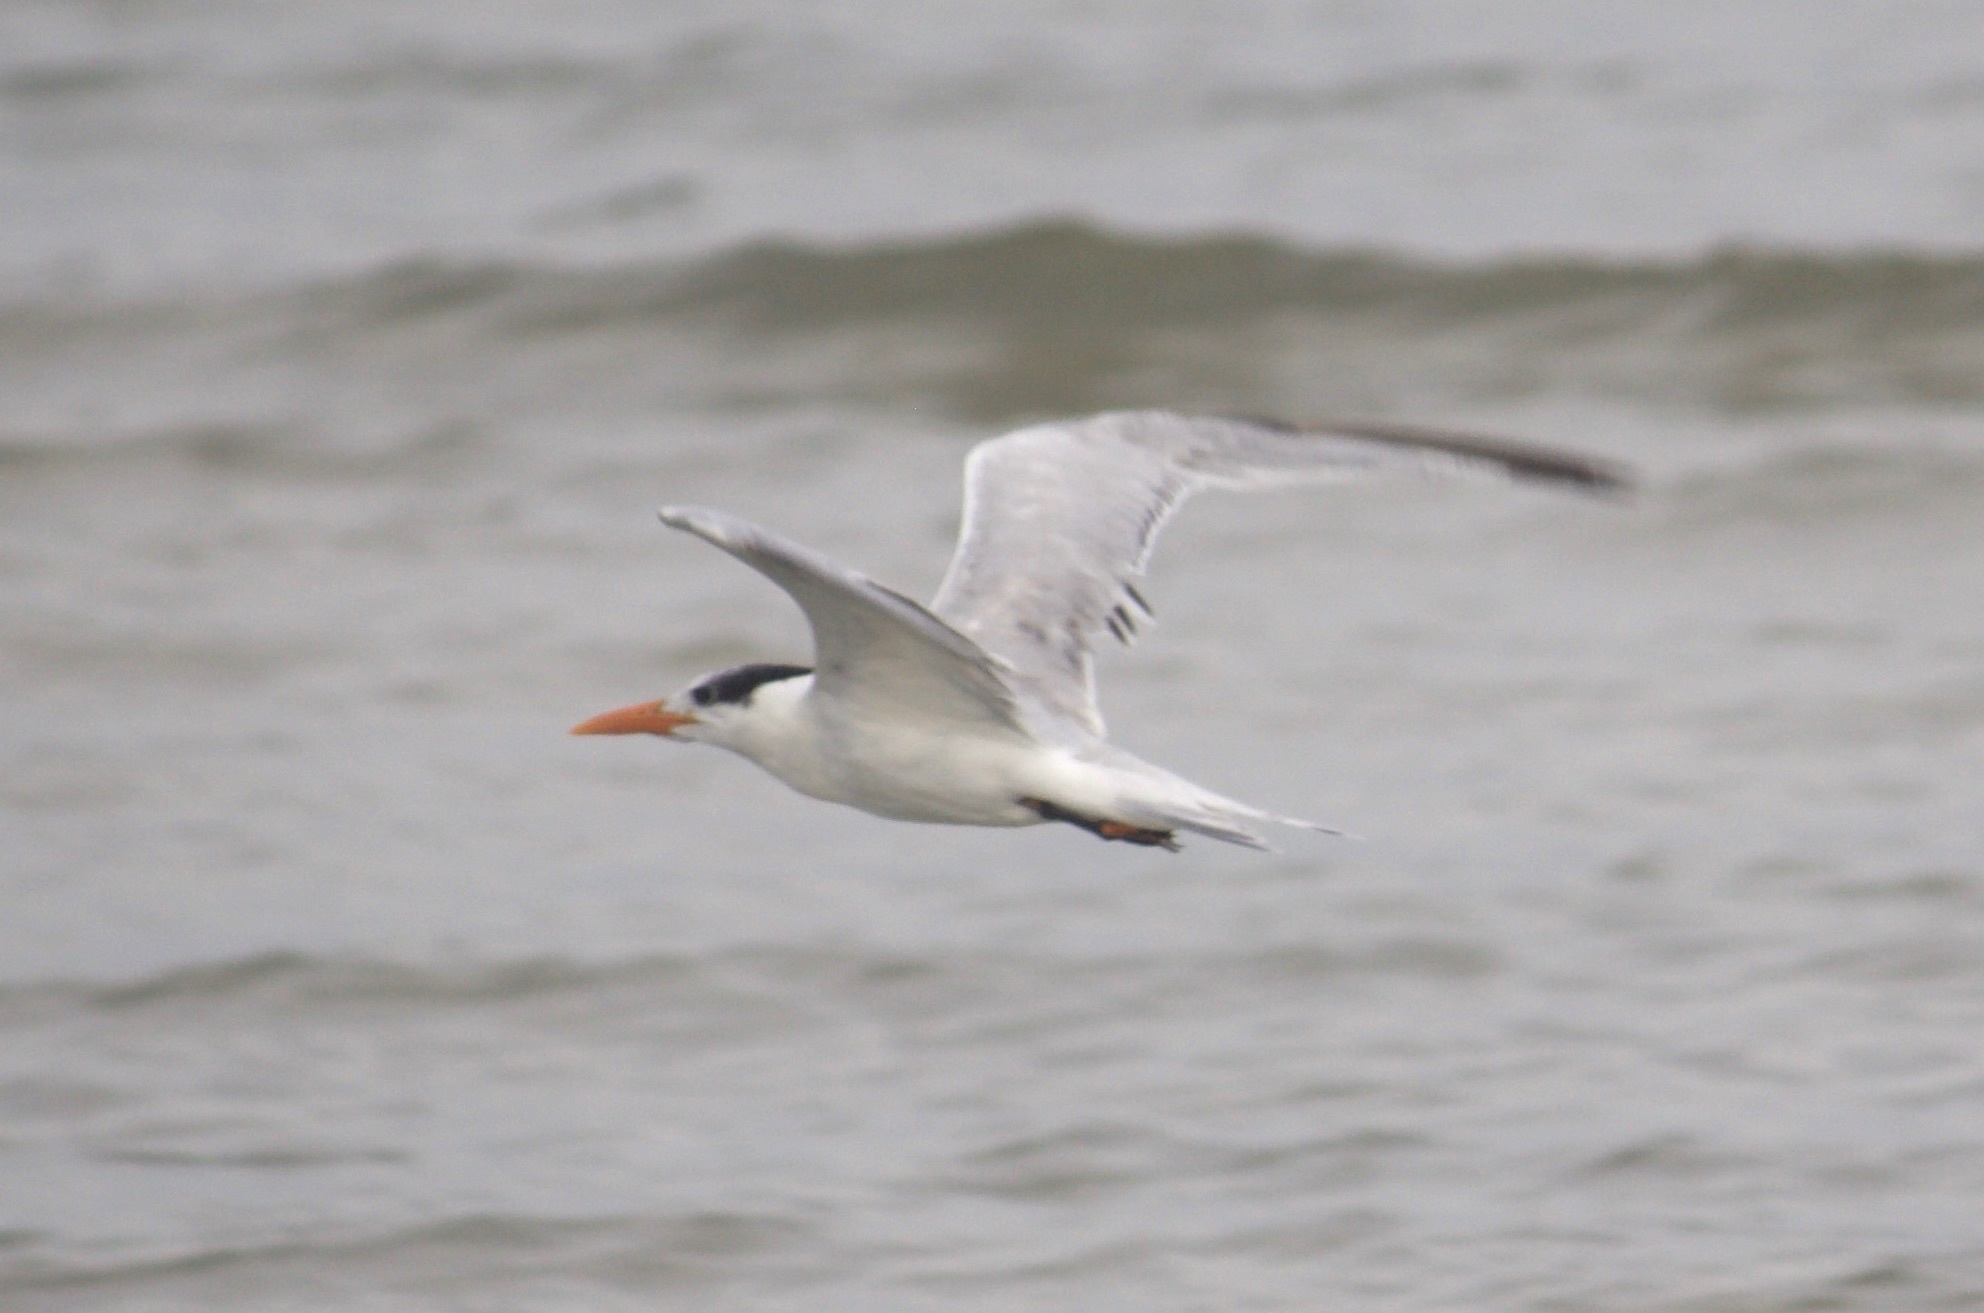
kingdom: Animalia
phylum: Chordata
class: Aves
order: Charadriiformes
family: Laridae
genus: Thalasseus
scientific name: Thalasseus maximus
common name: Royal tern
